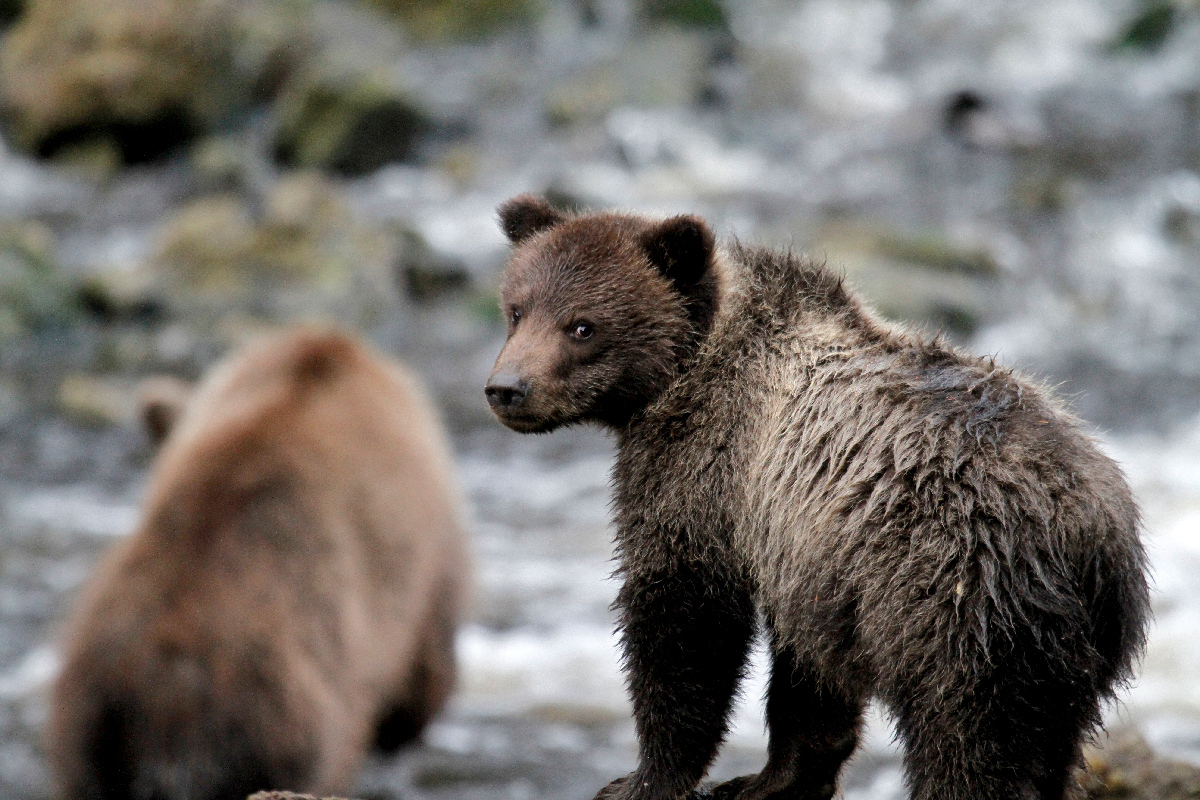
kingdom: Animalia
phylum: Chordata
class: Mammalia
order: Carnivora
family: Ursidae
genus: Ursus
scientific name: Ursus arctos
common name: Brown bear
